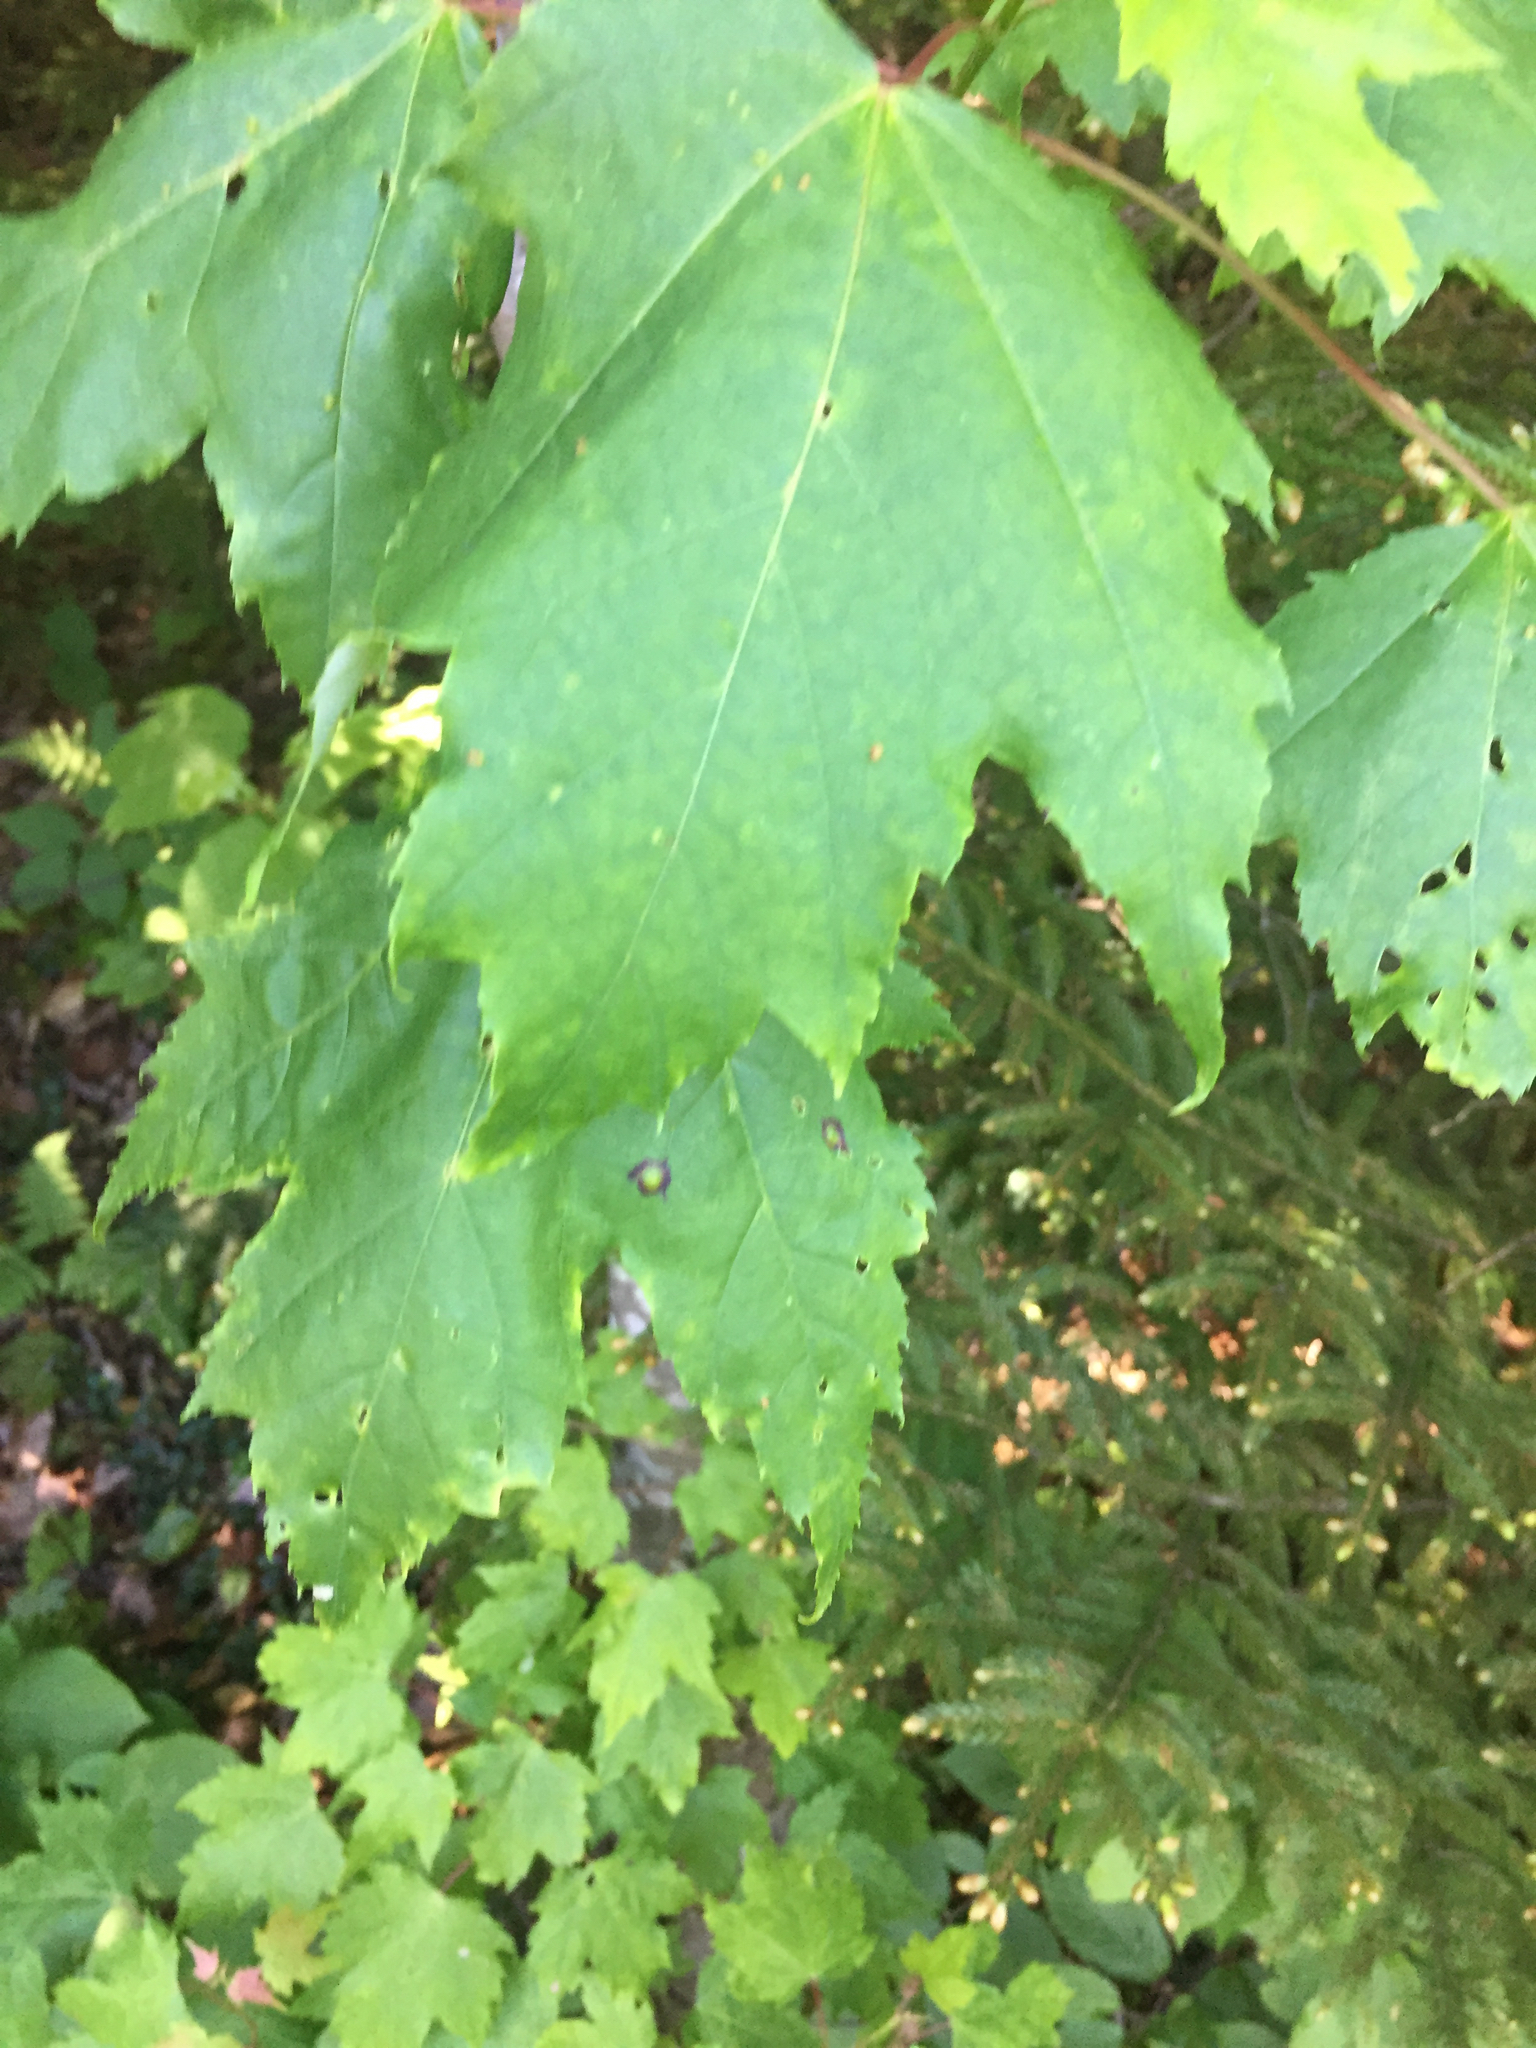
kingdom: Plantae
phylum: Tracheophyta
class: Magnoliopsida
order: Sapindales
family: Sapindaceae
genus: Acer
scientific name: Acer rubrum
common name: Red maple
